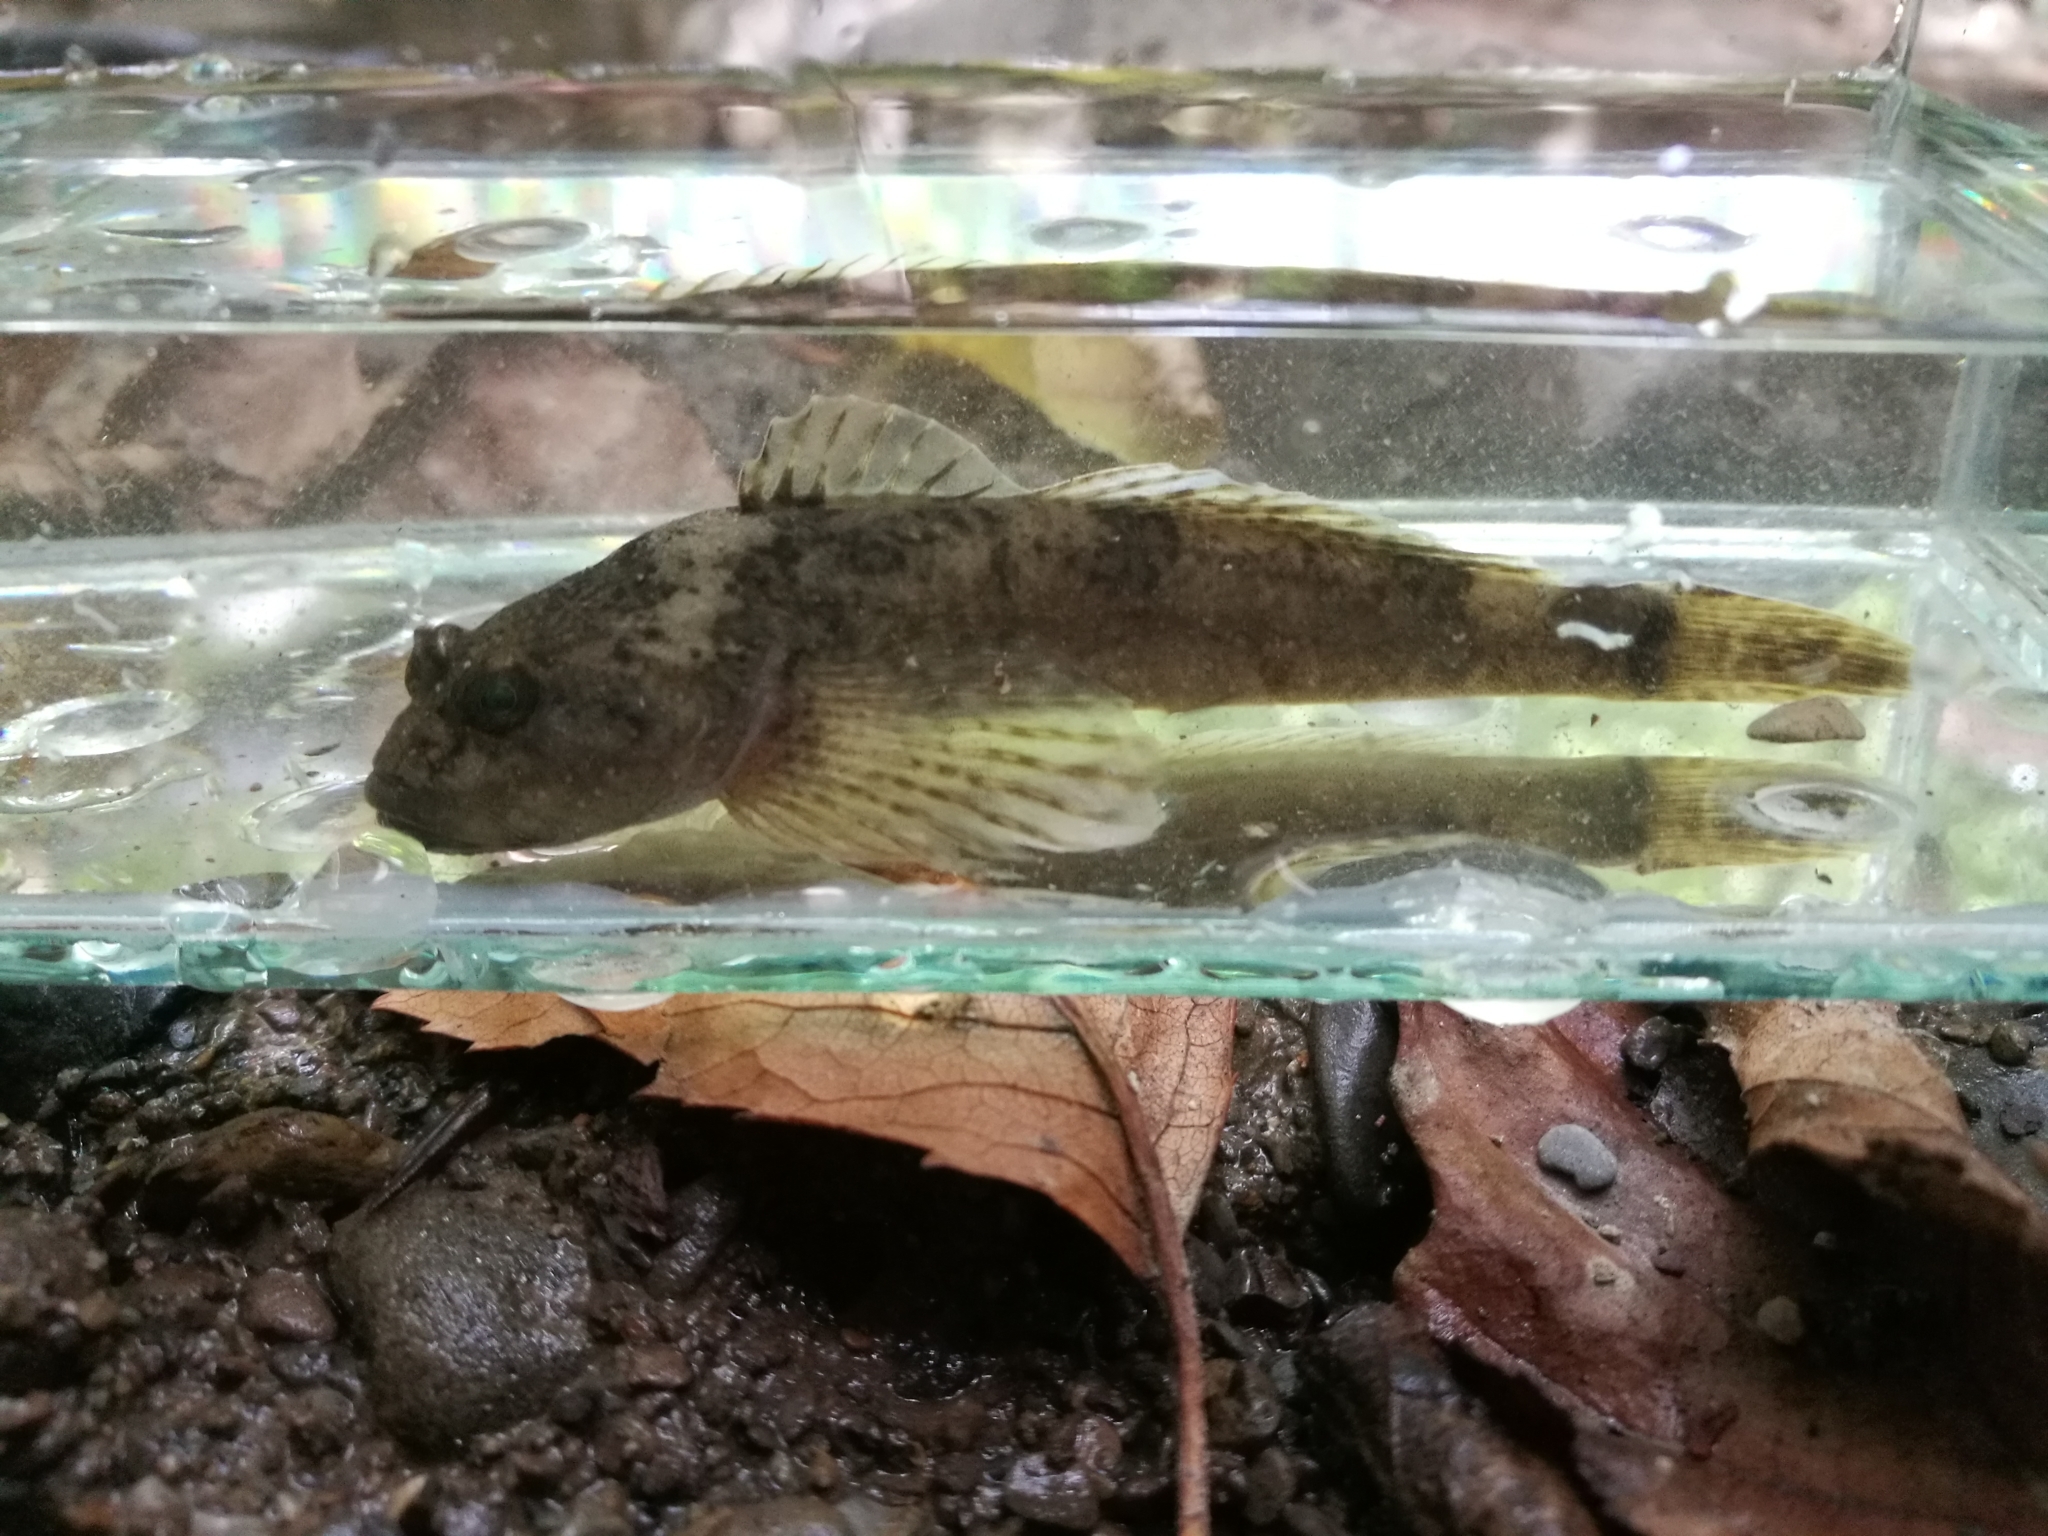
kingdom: Animalia
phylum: Chordata
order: Scorpaeniformes
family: Cottidae
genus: Cottus
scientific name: Cottus gobio
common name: Bullhead
